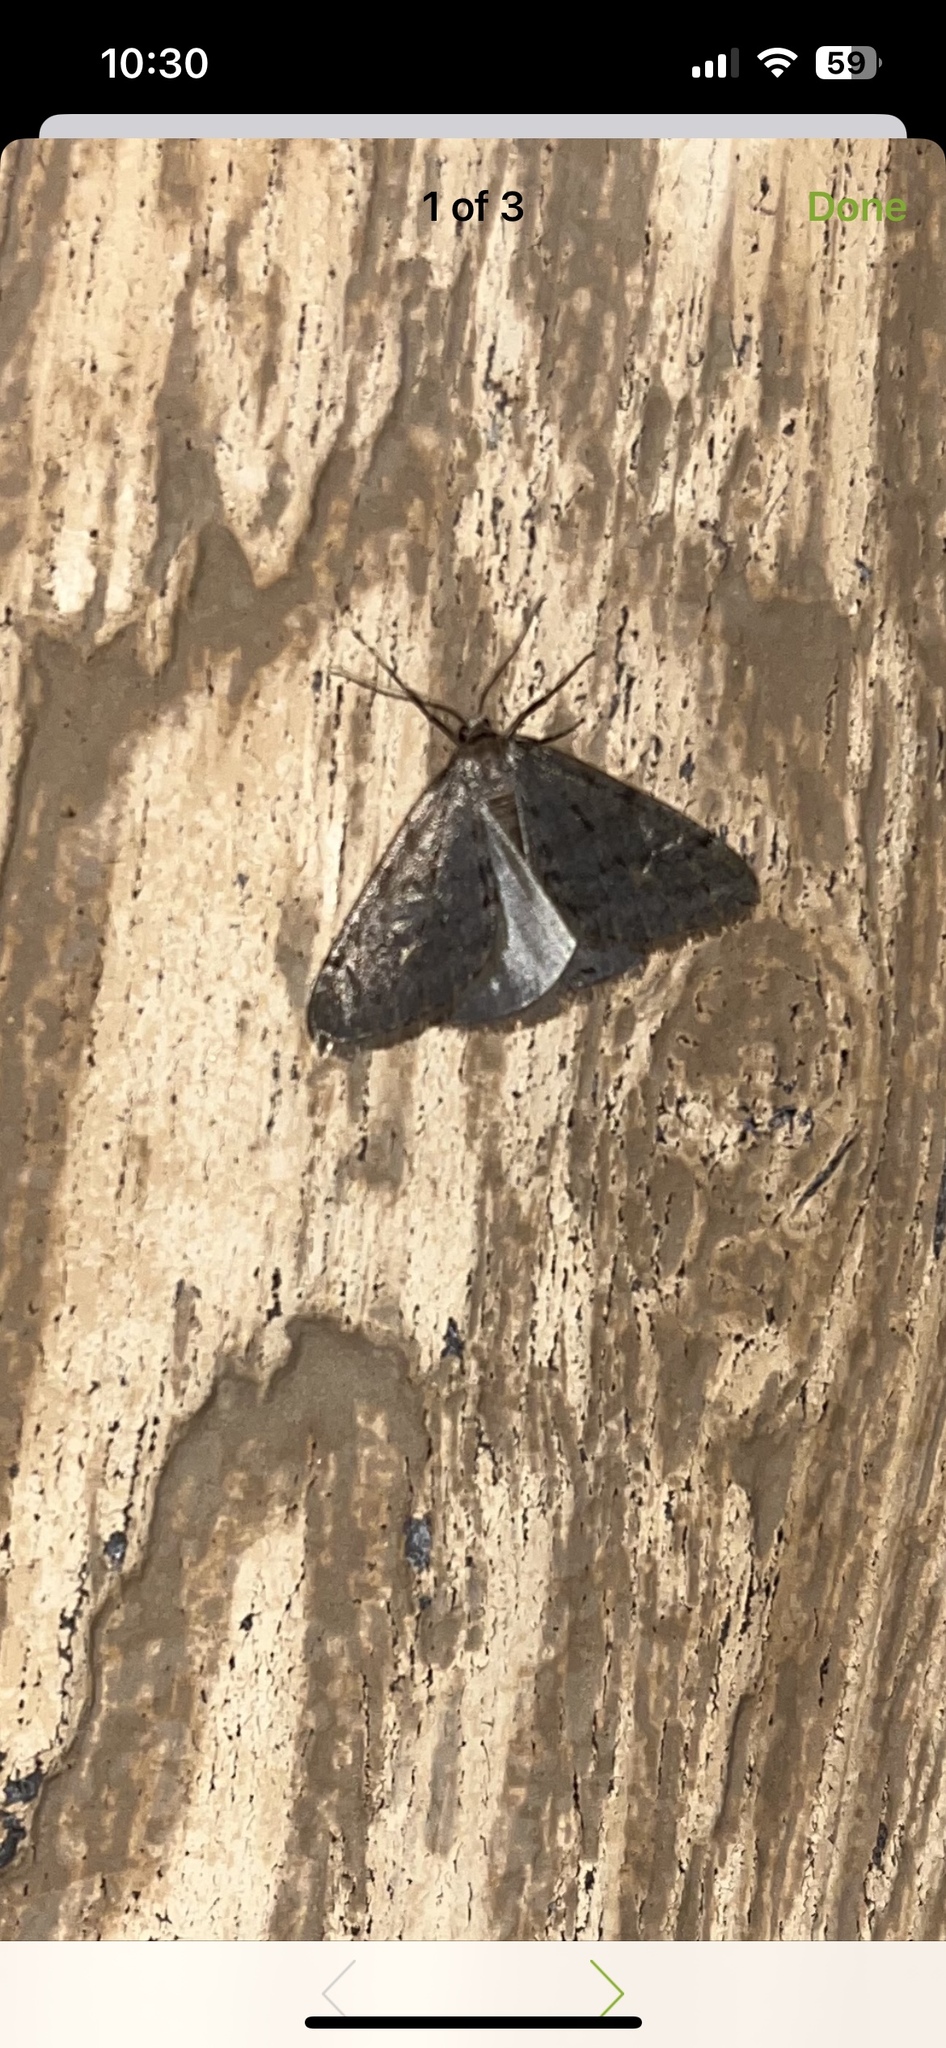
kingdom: Animalia
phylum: Arthropoda
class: Insecta
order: Lepidoptera
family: Geometridae
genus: Paleacrita
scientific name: Paleacrita vernata
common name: Spring cankerworm
